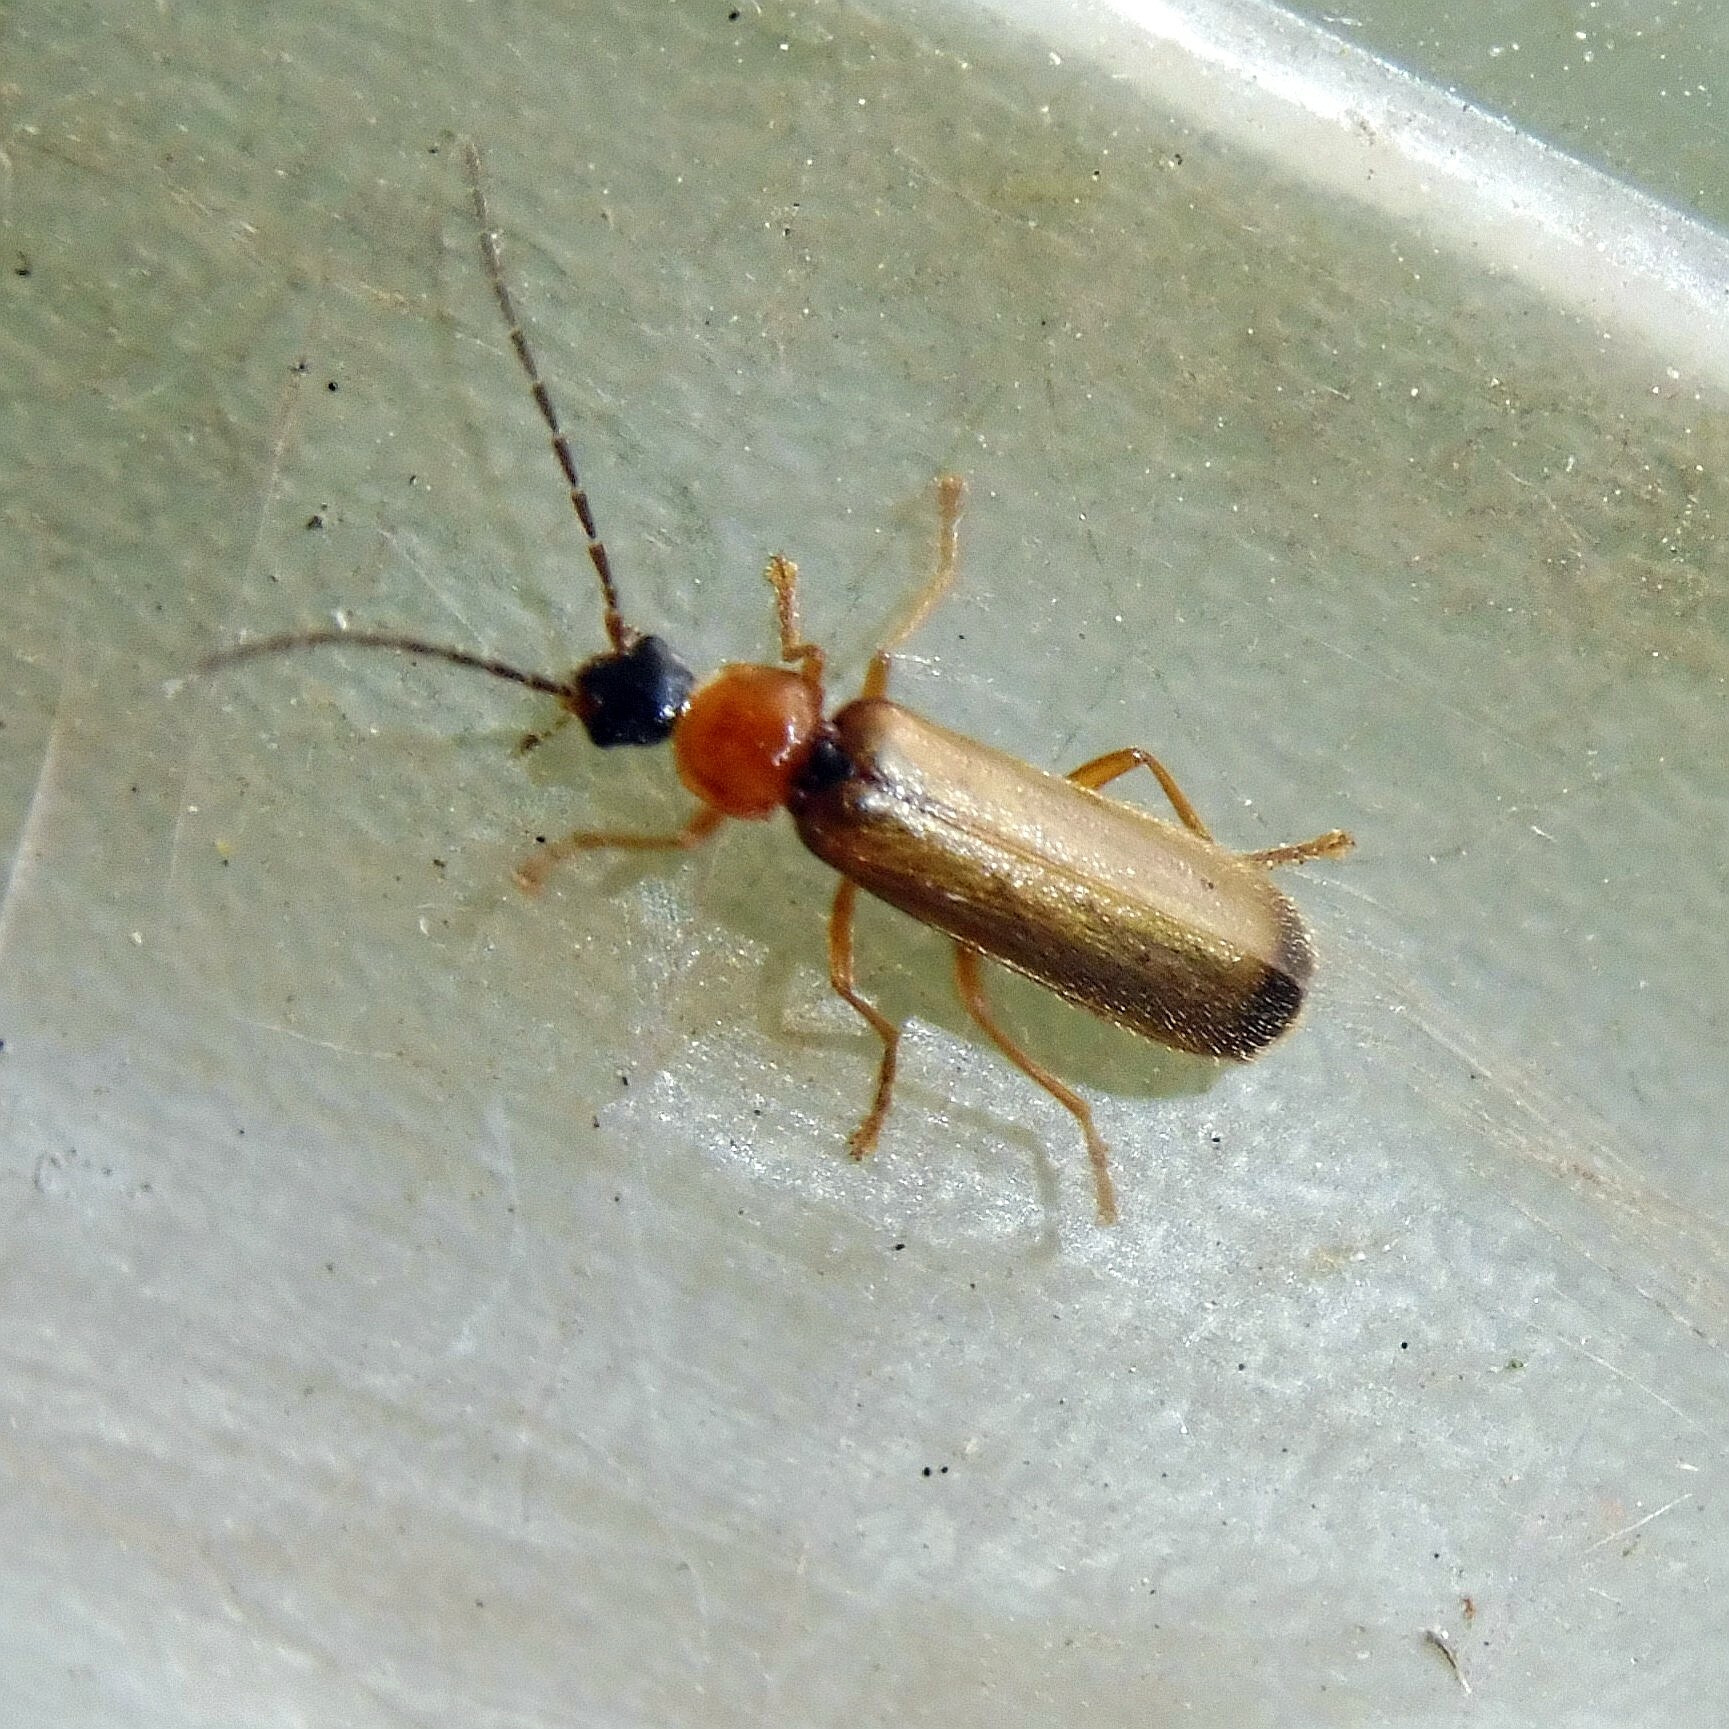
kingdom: Animalia
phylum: Arthropoda
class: Insecta
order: Coleoptera
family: Cantharidae
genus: Rhagonycha
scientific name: Rhagonycha lutea
